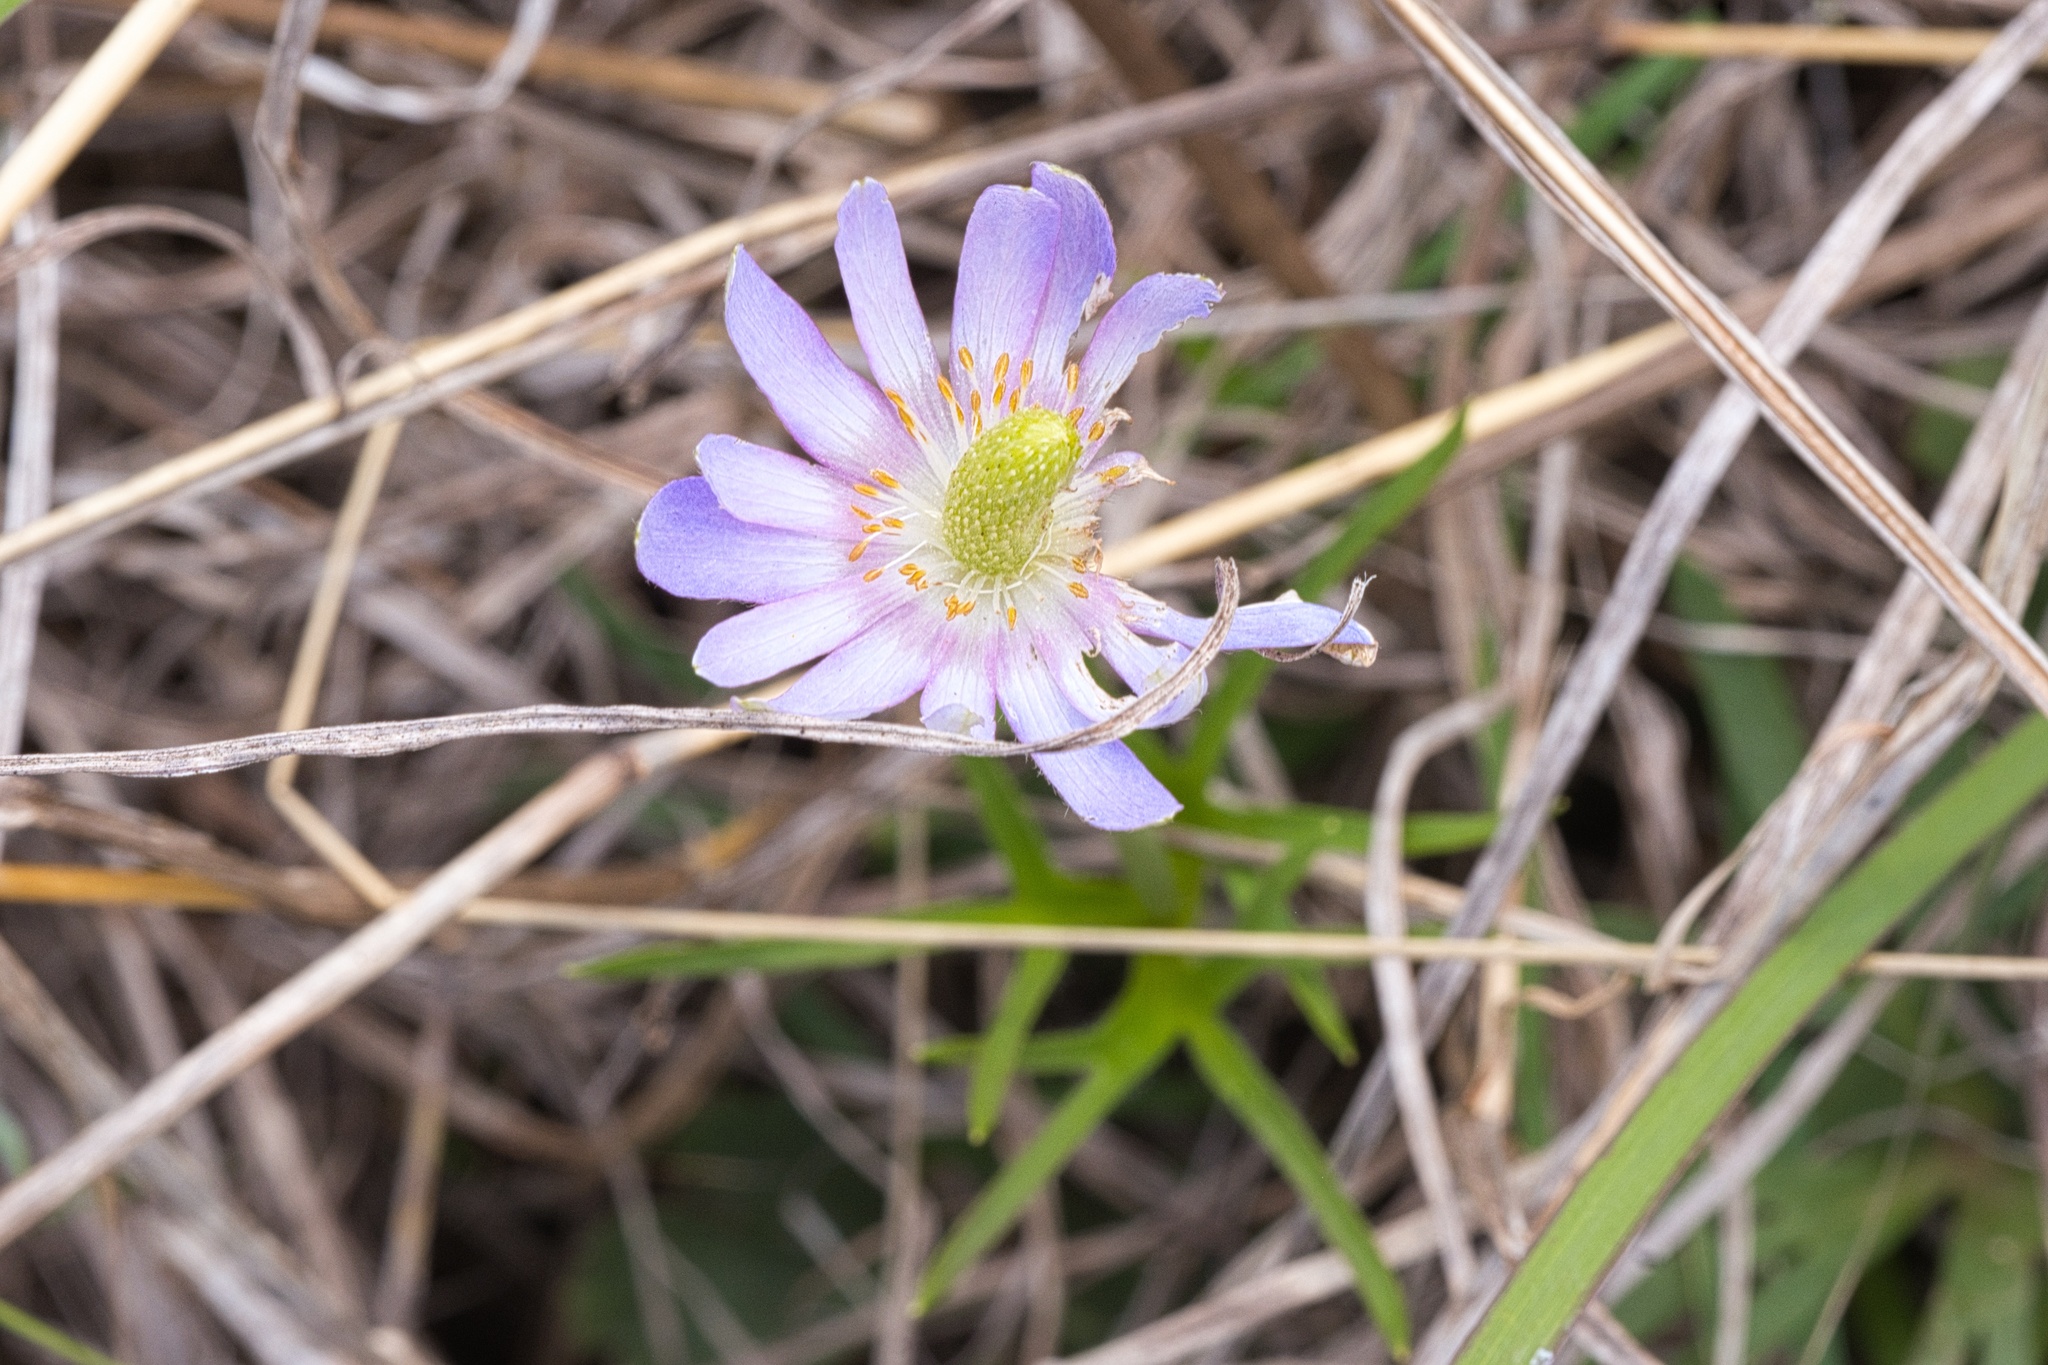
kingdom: Plantae
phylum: Tracheophyta
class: Magnoliopsida
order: Ranunculales
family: Ranunculaceae
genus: Anemone
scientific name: Anemone berlandieri
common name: Ten-petal anemone
